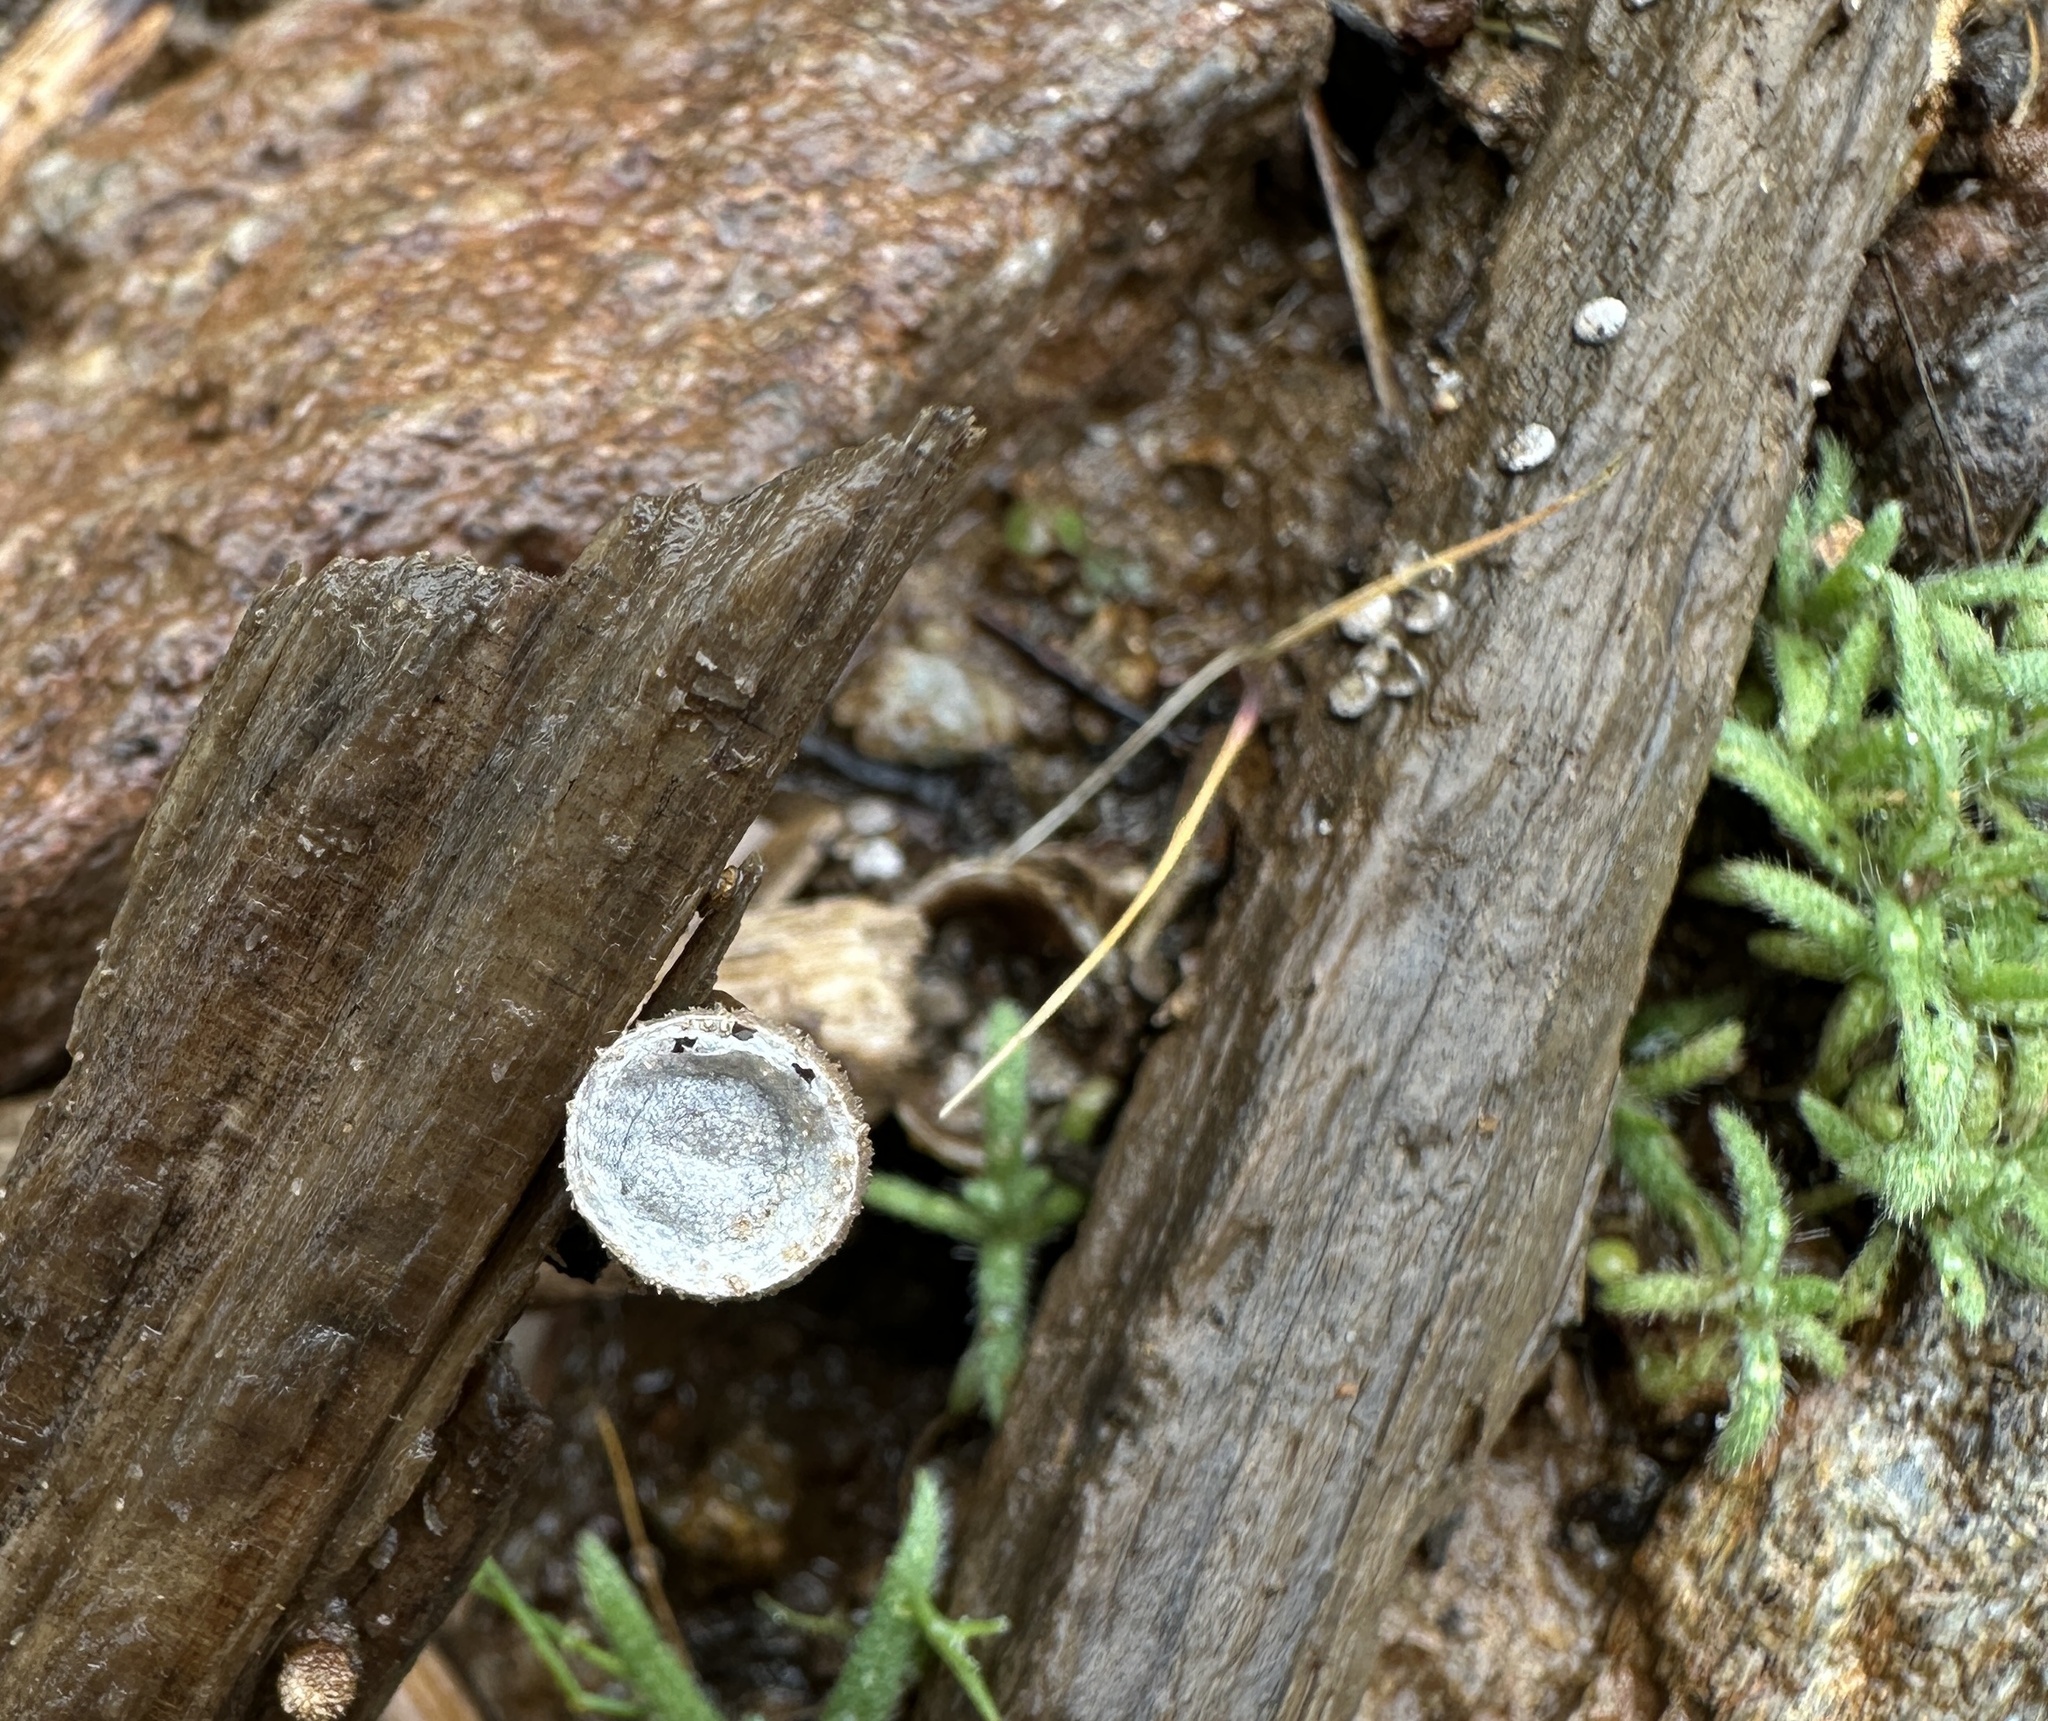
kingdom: Fungi
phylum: Basidiomycota
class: Agaricomycetes
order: Agaricales
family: Agaricaceae
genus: Nidula
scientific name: Nidula candida
